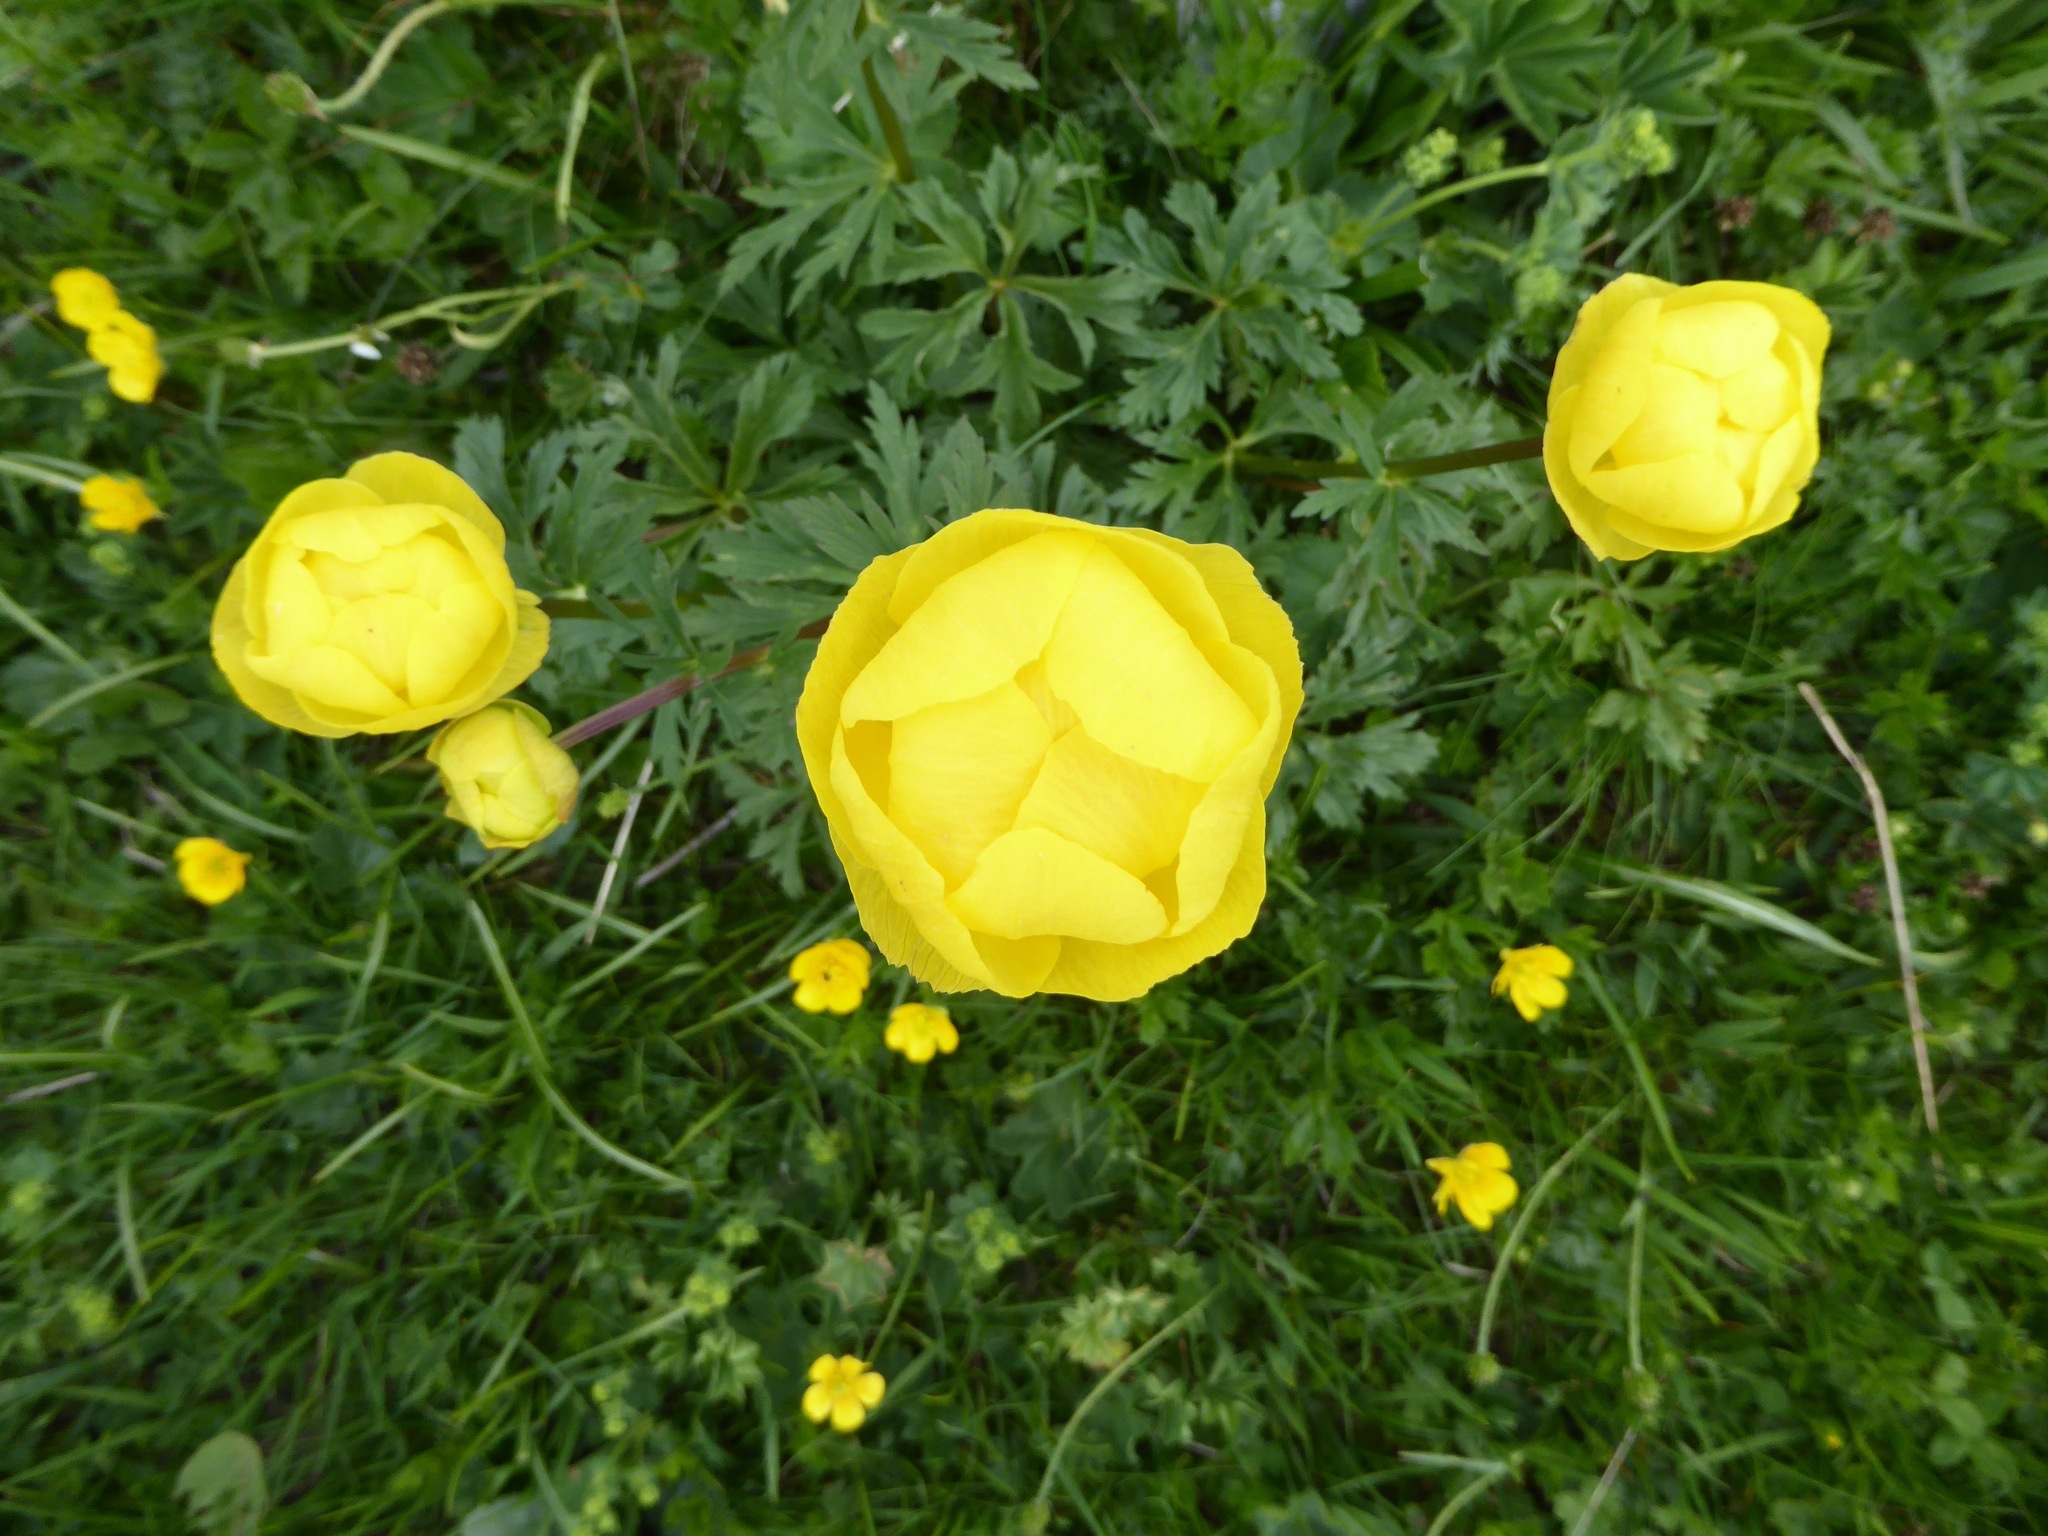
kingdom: Plantae
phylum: Tracheophyta
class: Magnoliopsida
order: Ranunculales
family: Ranunculaceae
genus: Trollius
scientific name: Trollius europaeus
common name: European globeflower
